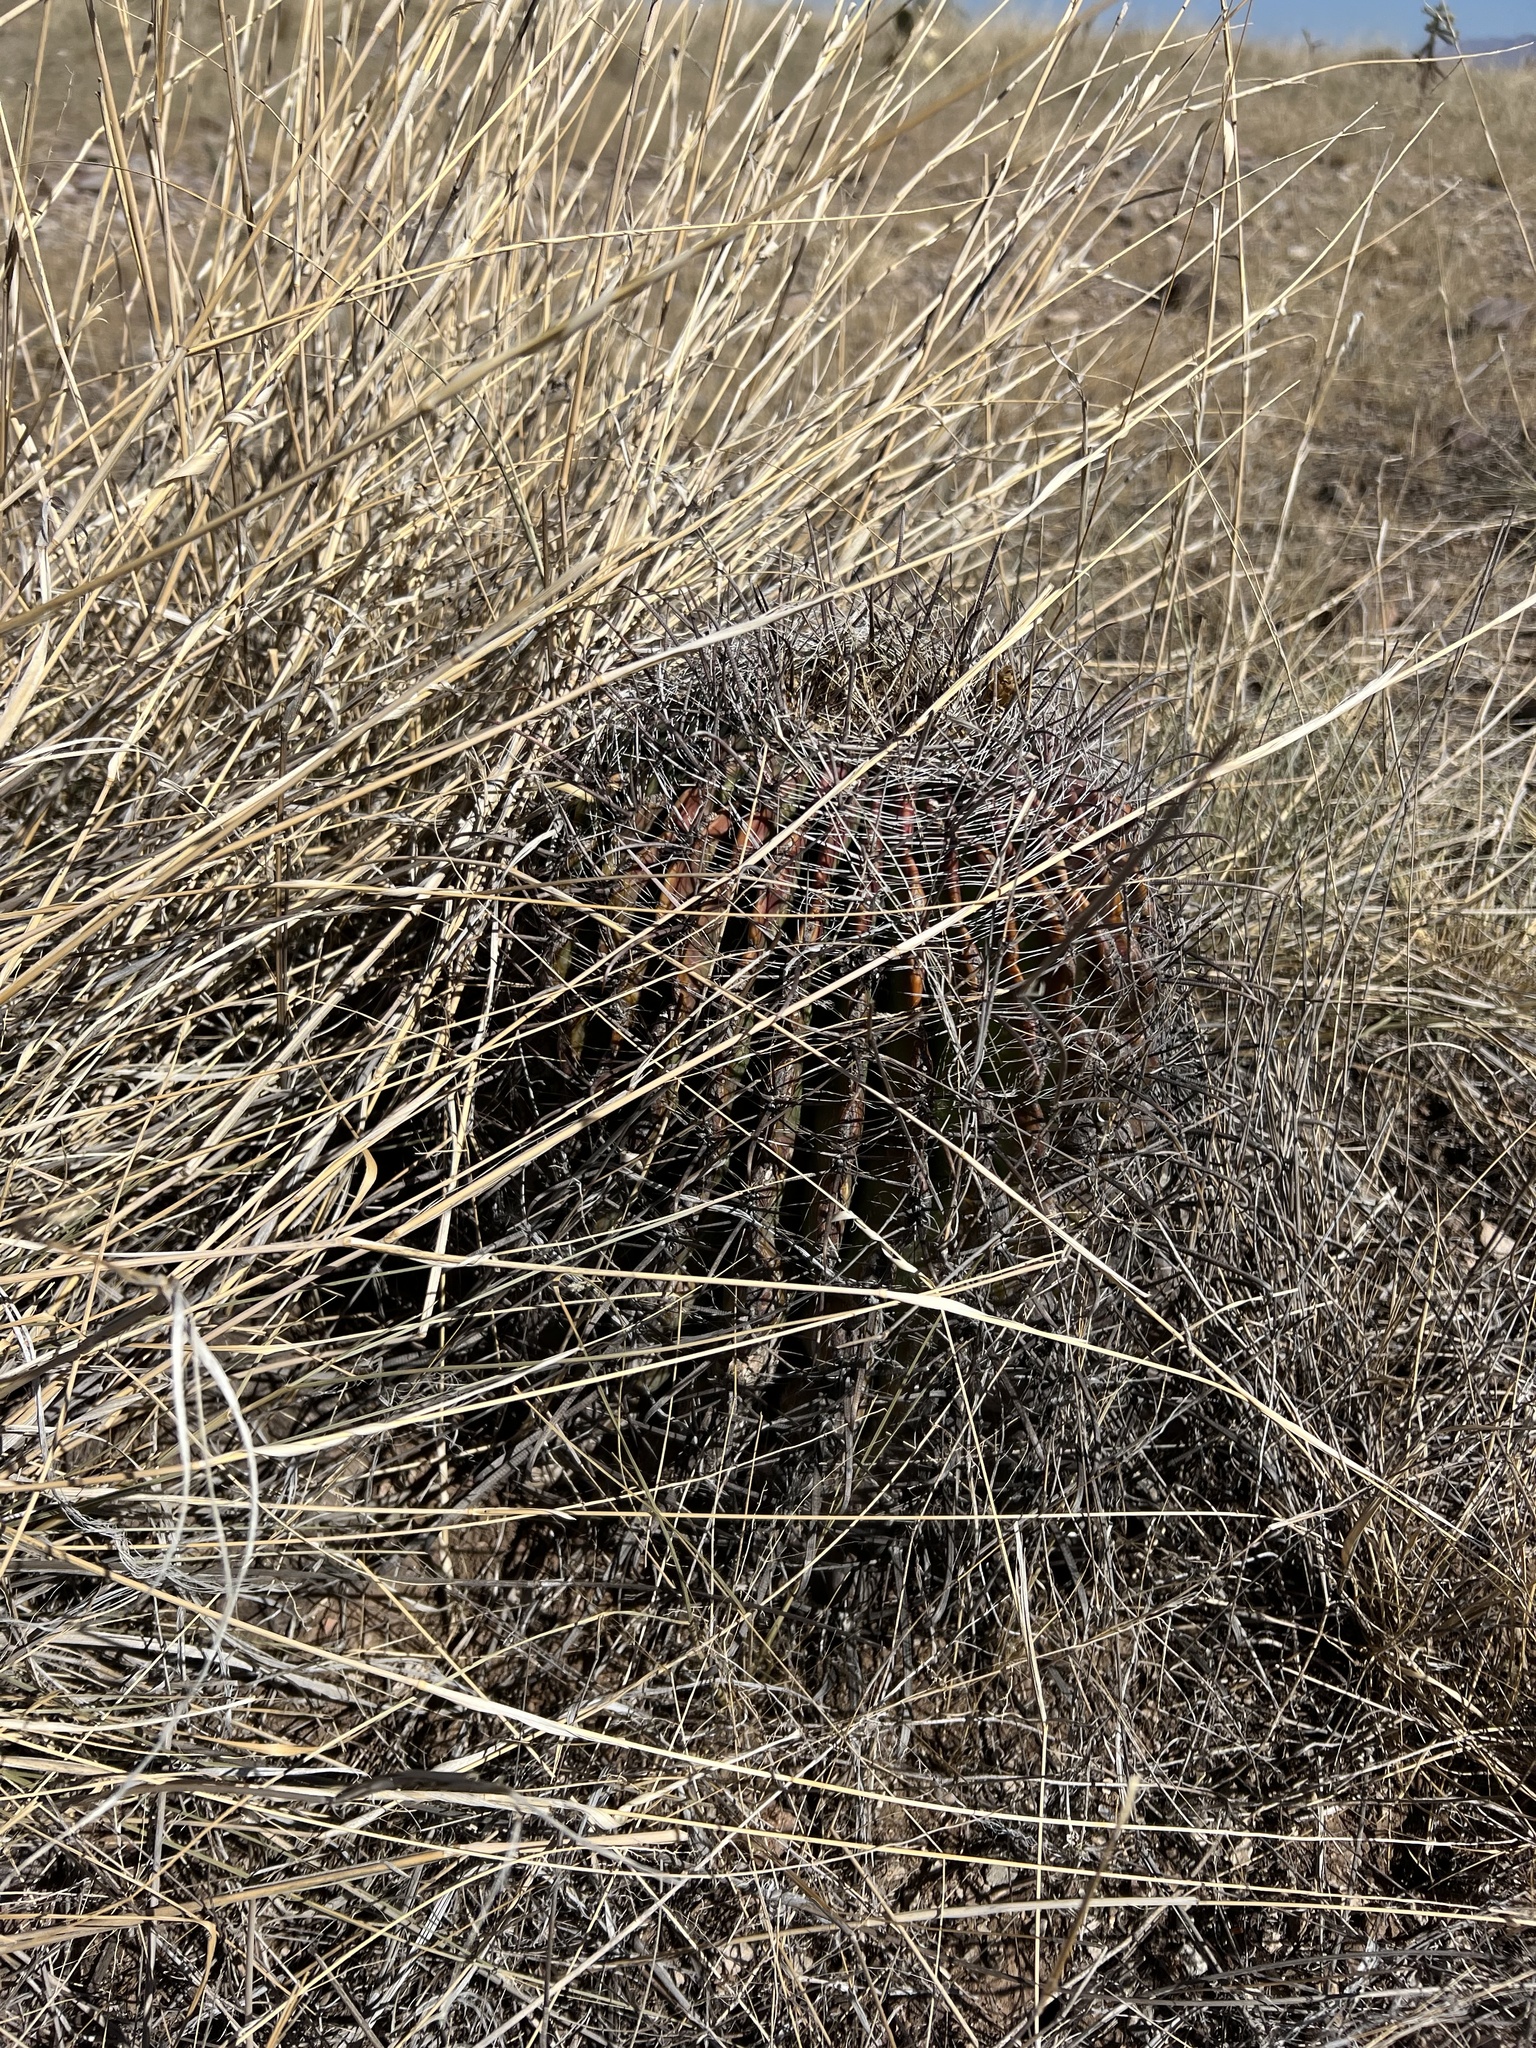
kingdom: Plantae
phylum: Tracheophyta
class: Magnoliopsida
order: Caryophyllales
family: Cactaceae
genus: Ferocactus
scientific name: Ferocactus wislizeni
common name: Candy barrel cactus
